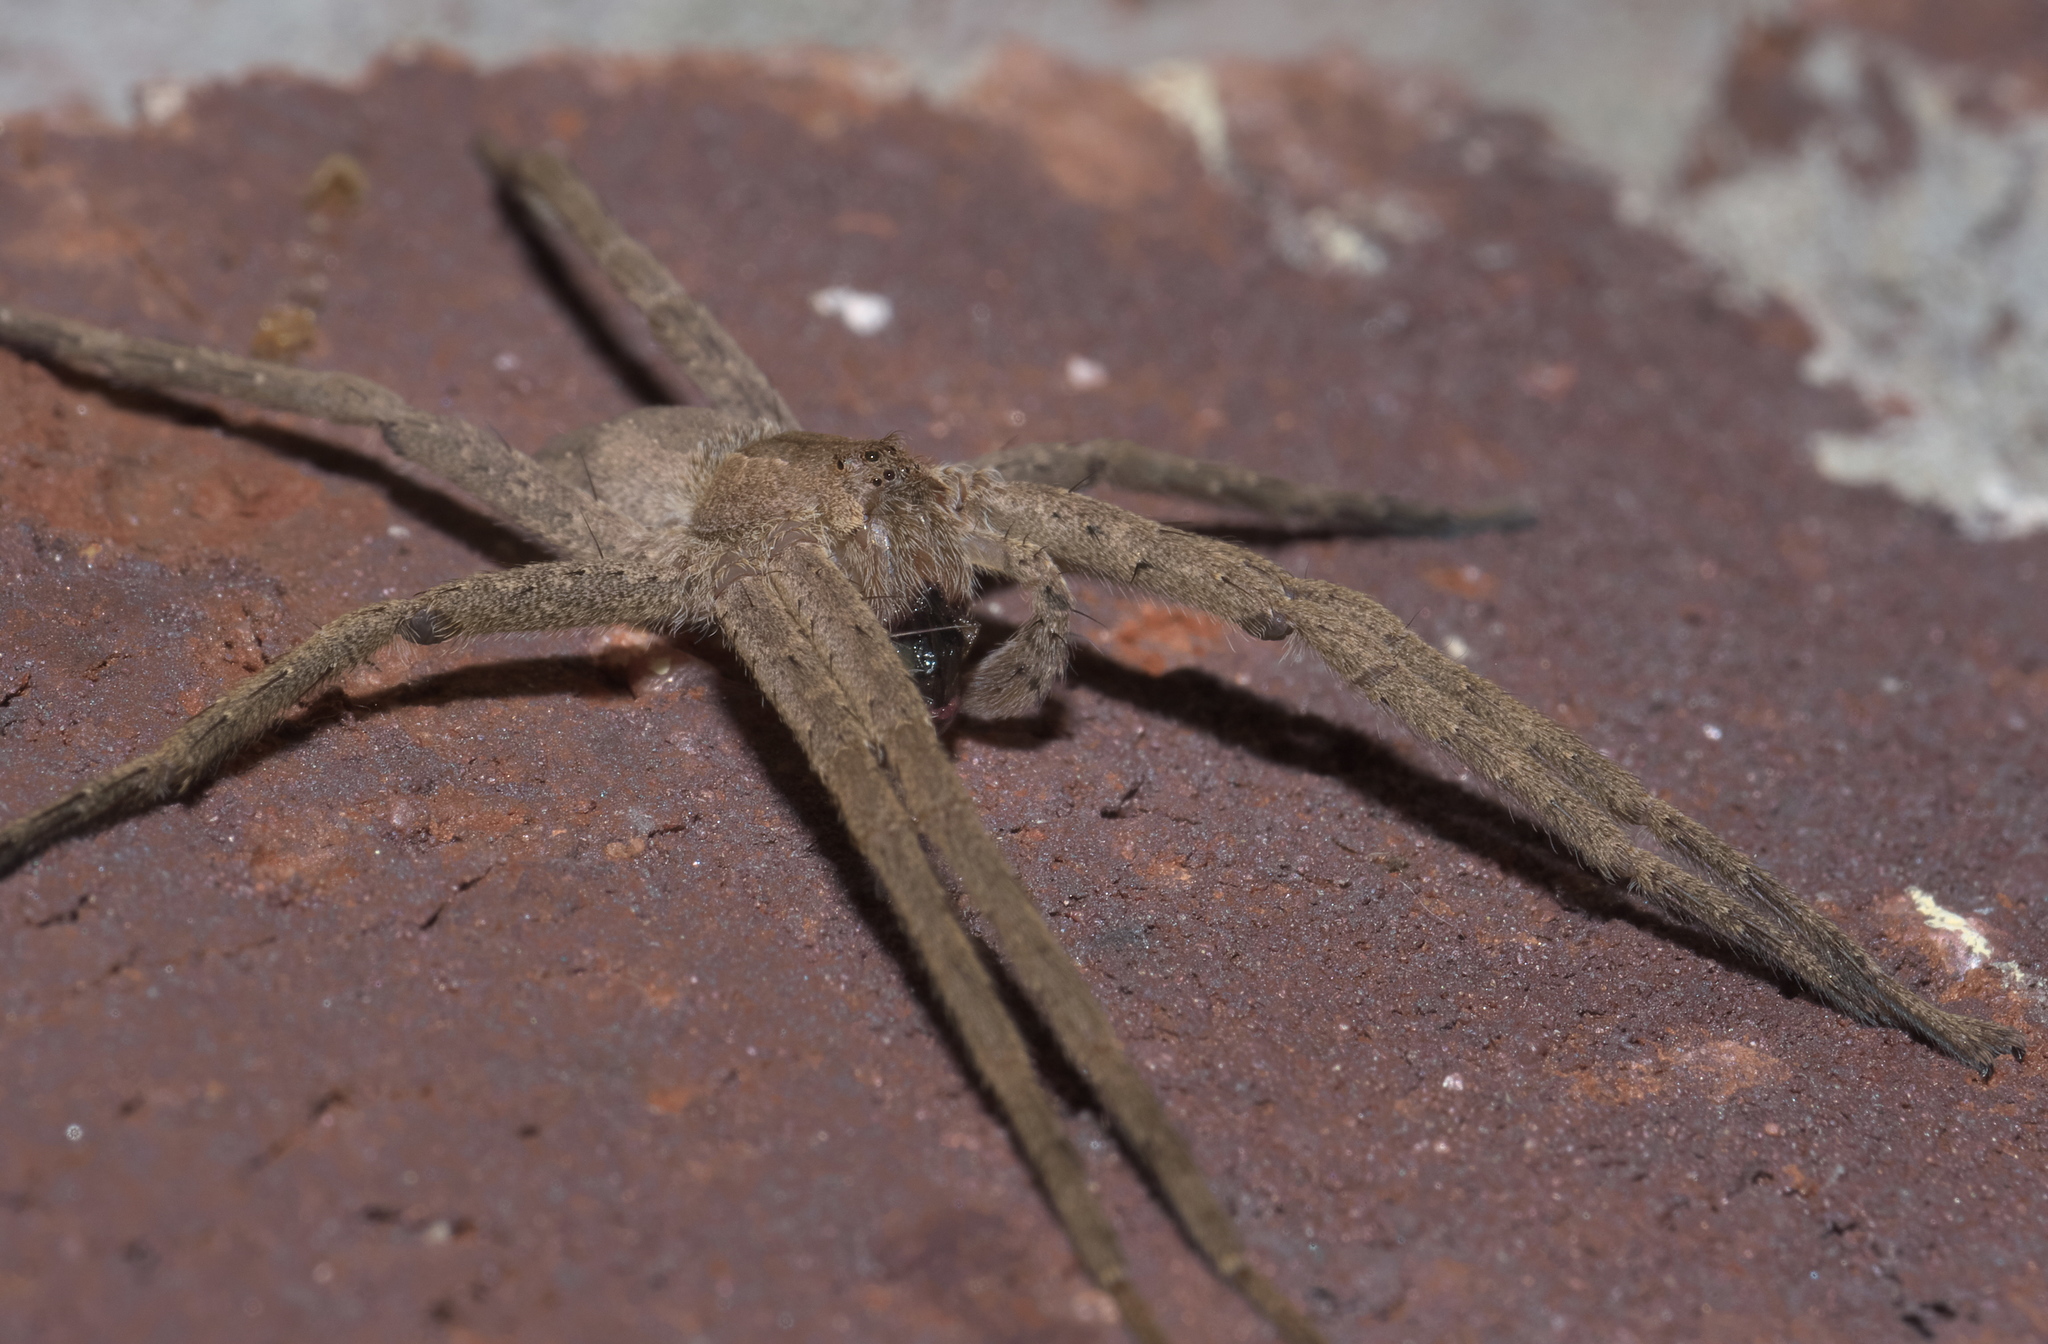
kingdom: Animalia
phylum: Arthropoda
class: Arachnida
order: Araneae
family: Pisauridae
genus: Pisaurina
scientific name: Pisaurina mira
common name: American nursery web spider
